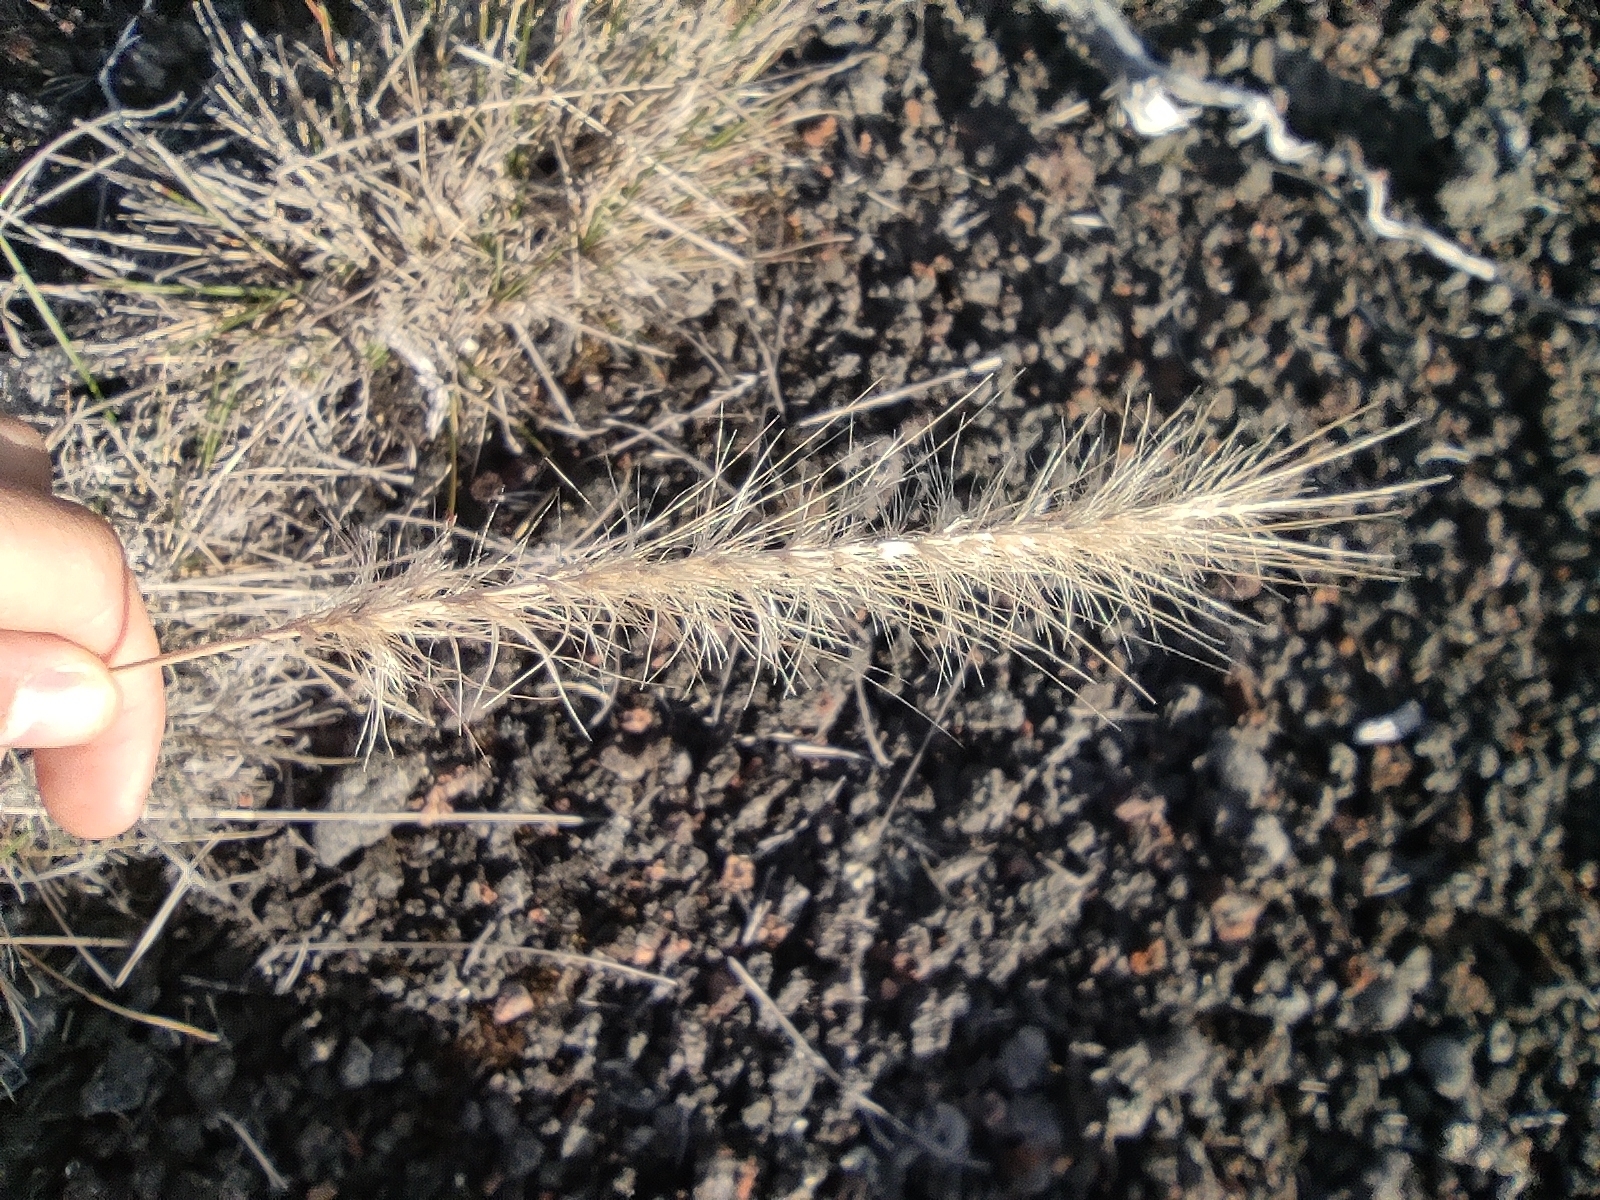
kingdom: Plantae
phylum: Tracheophyta
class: Liliopsida
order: Poales
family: Poaceae
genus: Cenchrus
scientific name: Cenchrus cafer
